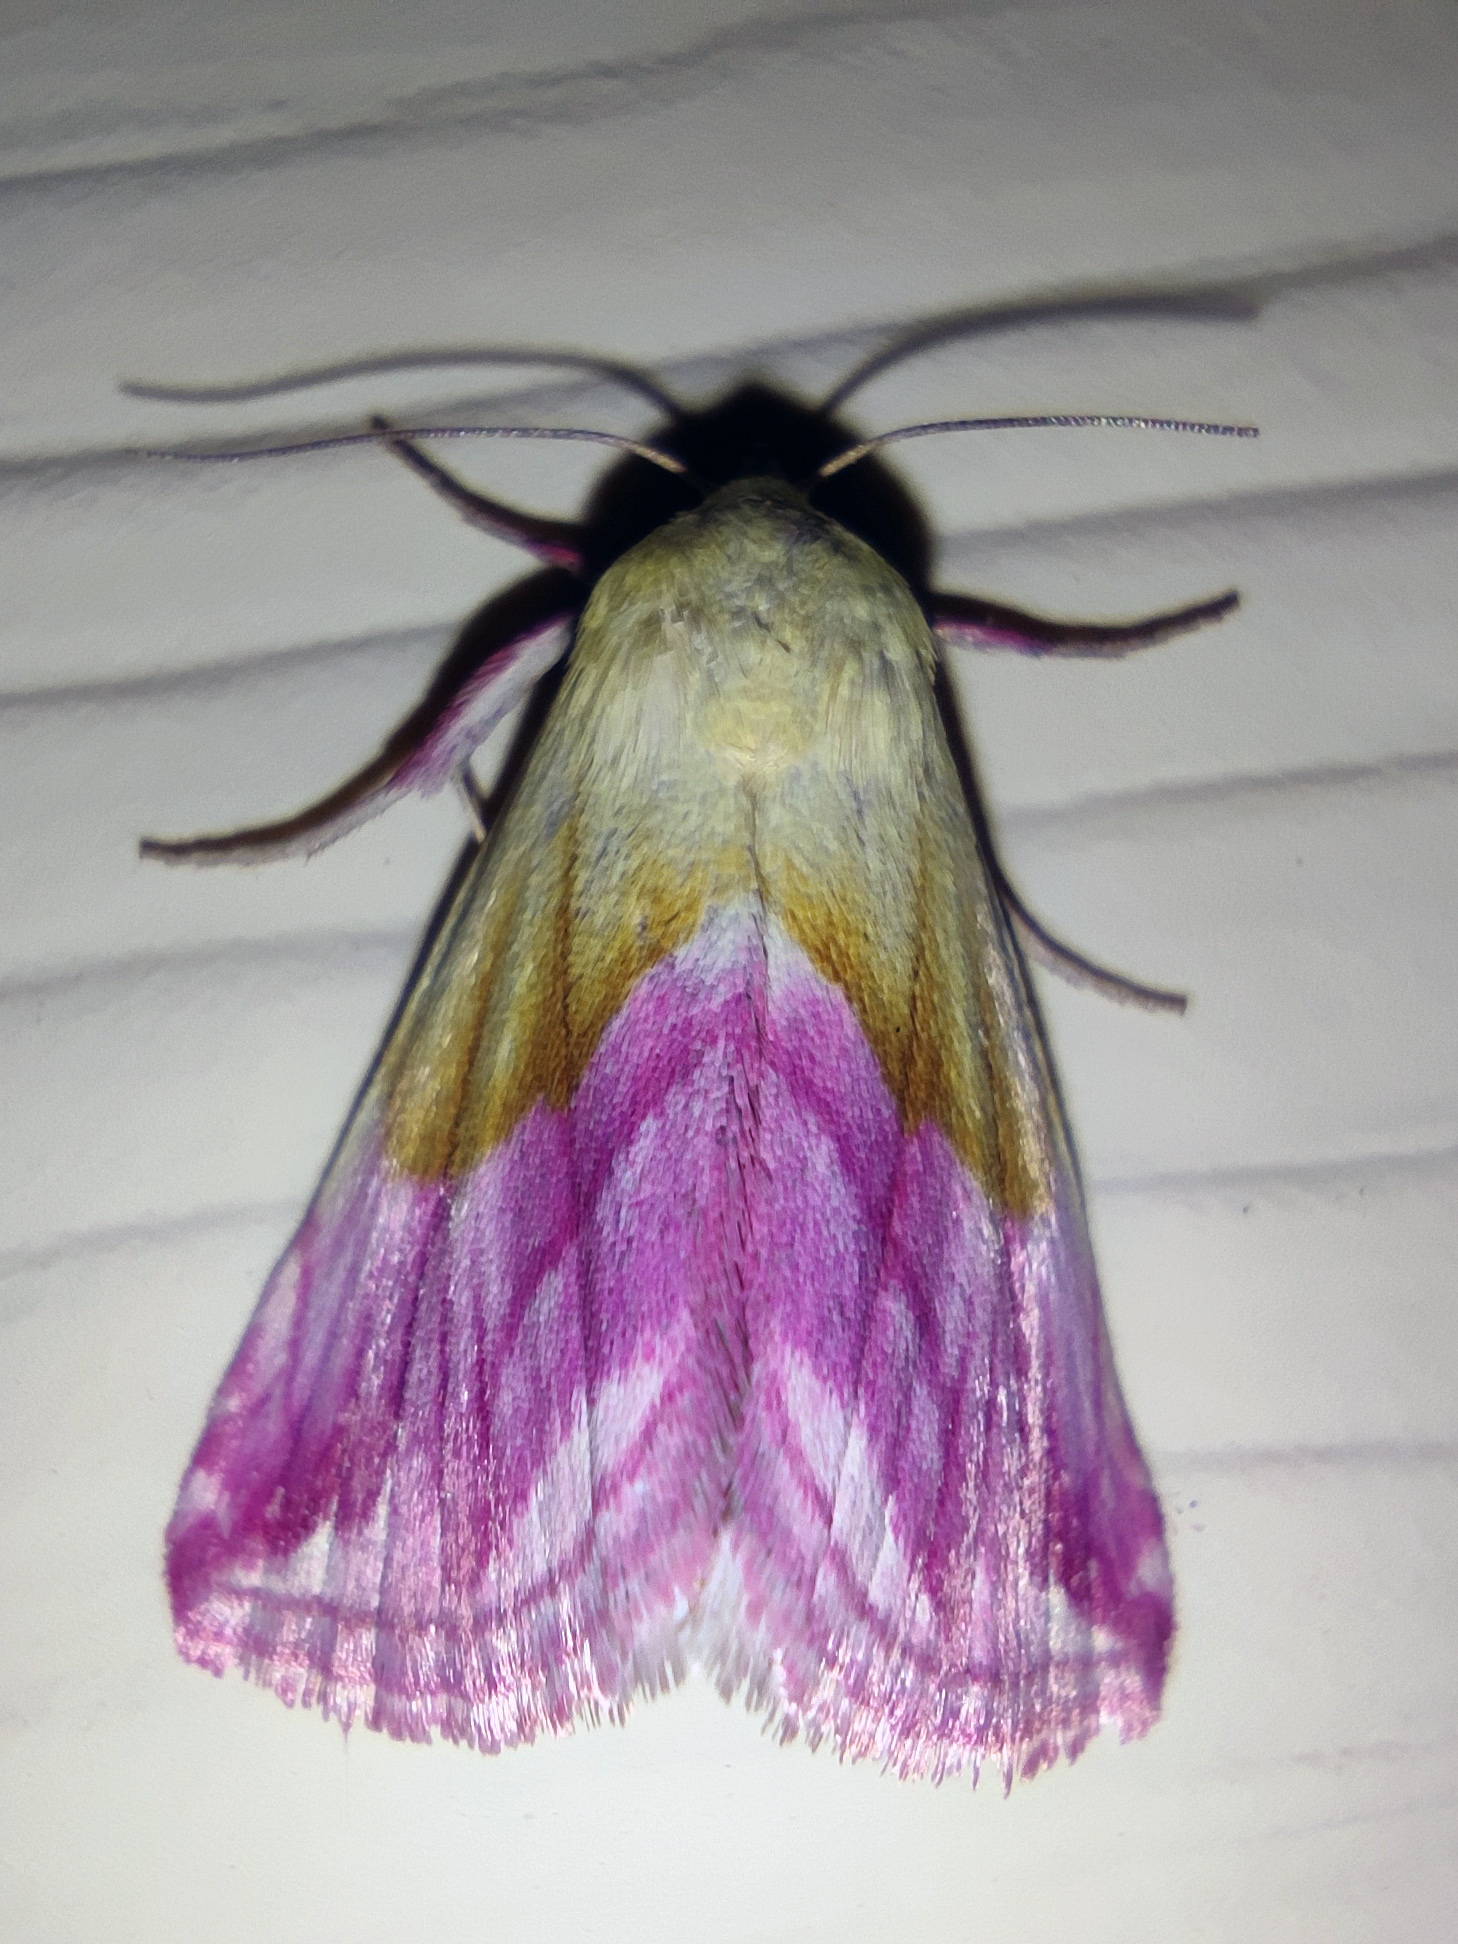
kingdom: Animalia
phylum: Arthropoda
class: Insecta
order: Lepidoptera
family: Noctuidae
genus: Eublemma
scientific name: Eublemma purpurina
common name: Beautiful marbled
